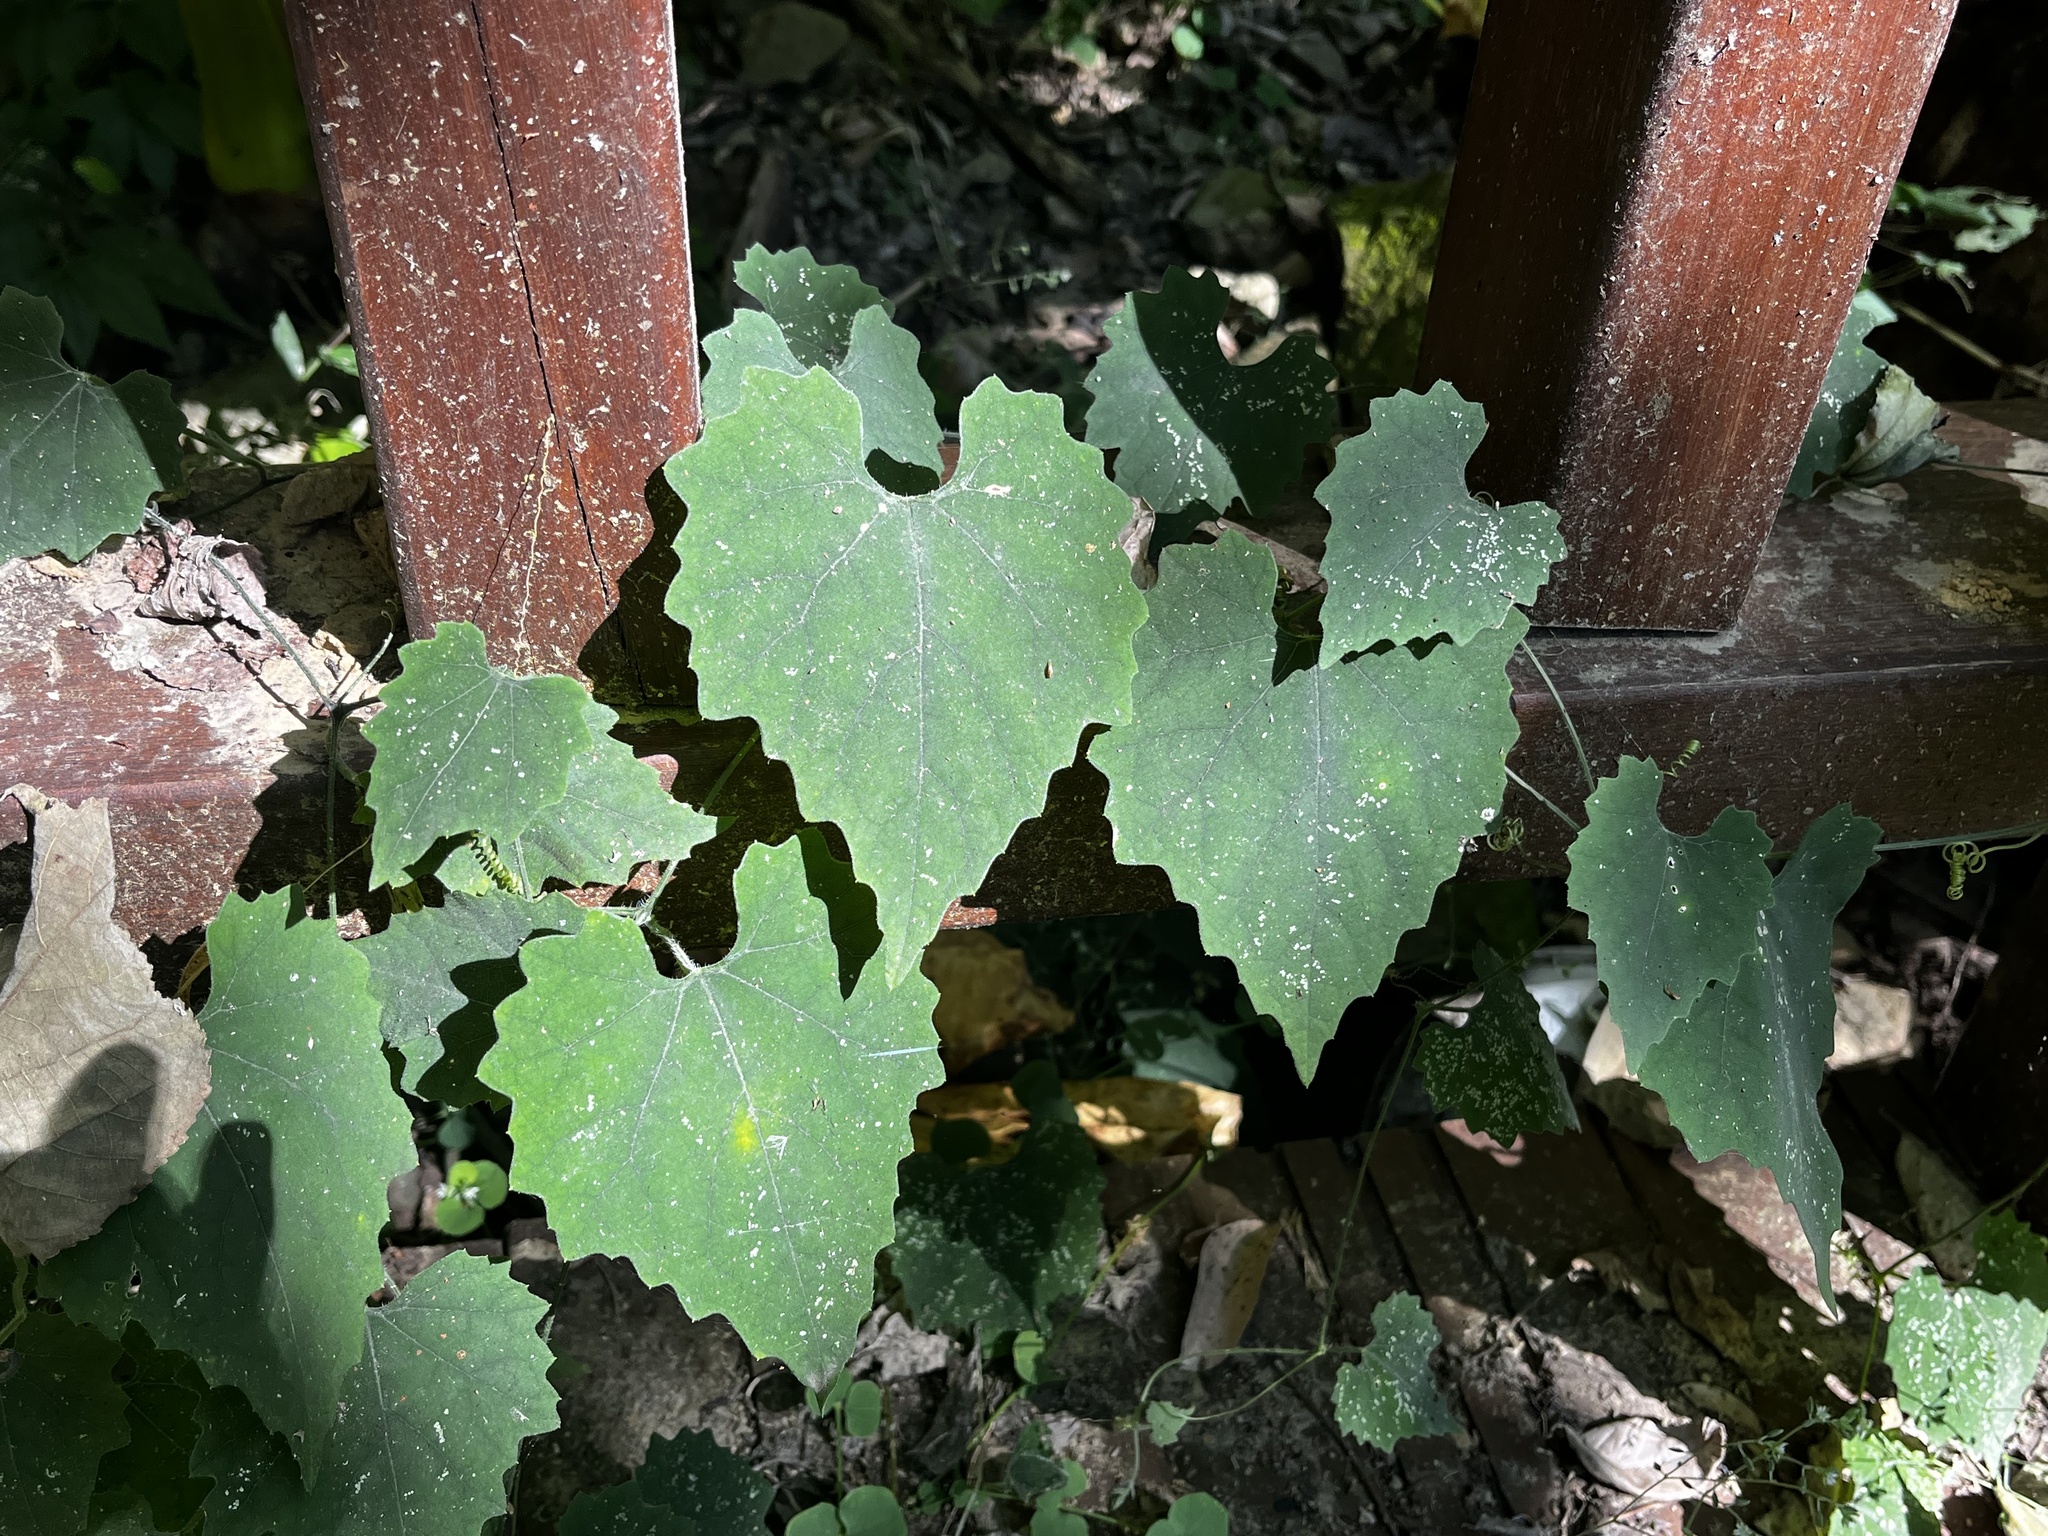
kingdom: Plantae
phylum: Tracheophyta
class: Magnoliopsida
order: Cucurbitales
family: Cucurbitaceae
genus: Trichosanthes
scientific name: Trichosanthes cucumeroides
